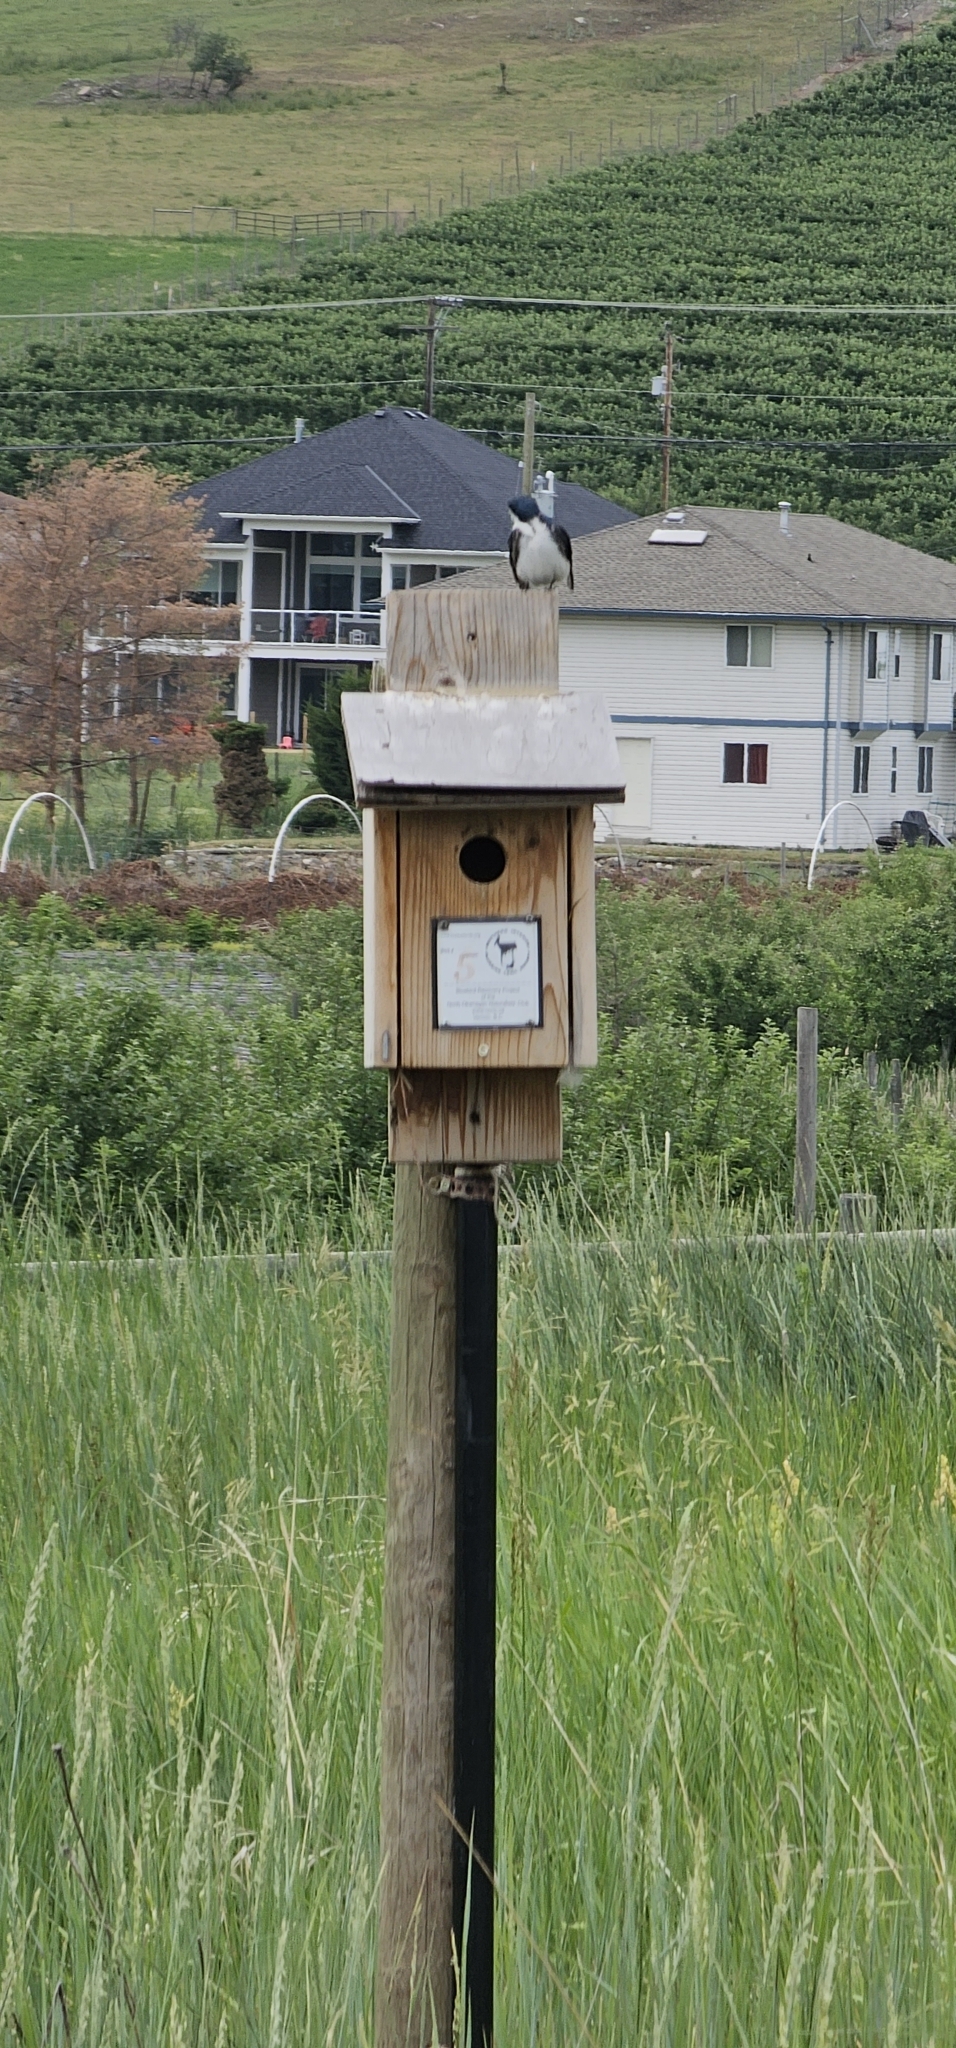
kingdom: Animalia
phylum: Chordata
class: Aves
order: Passeriformes
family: Hirundinidae
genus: Tachycineta
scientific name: Tachycineta bicolor
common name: Tree swallow
